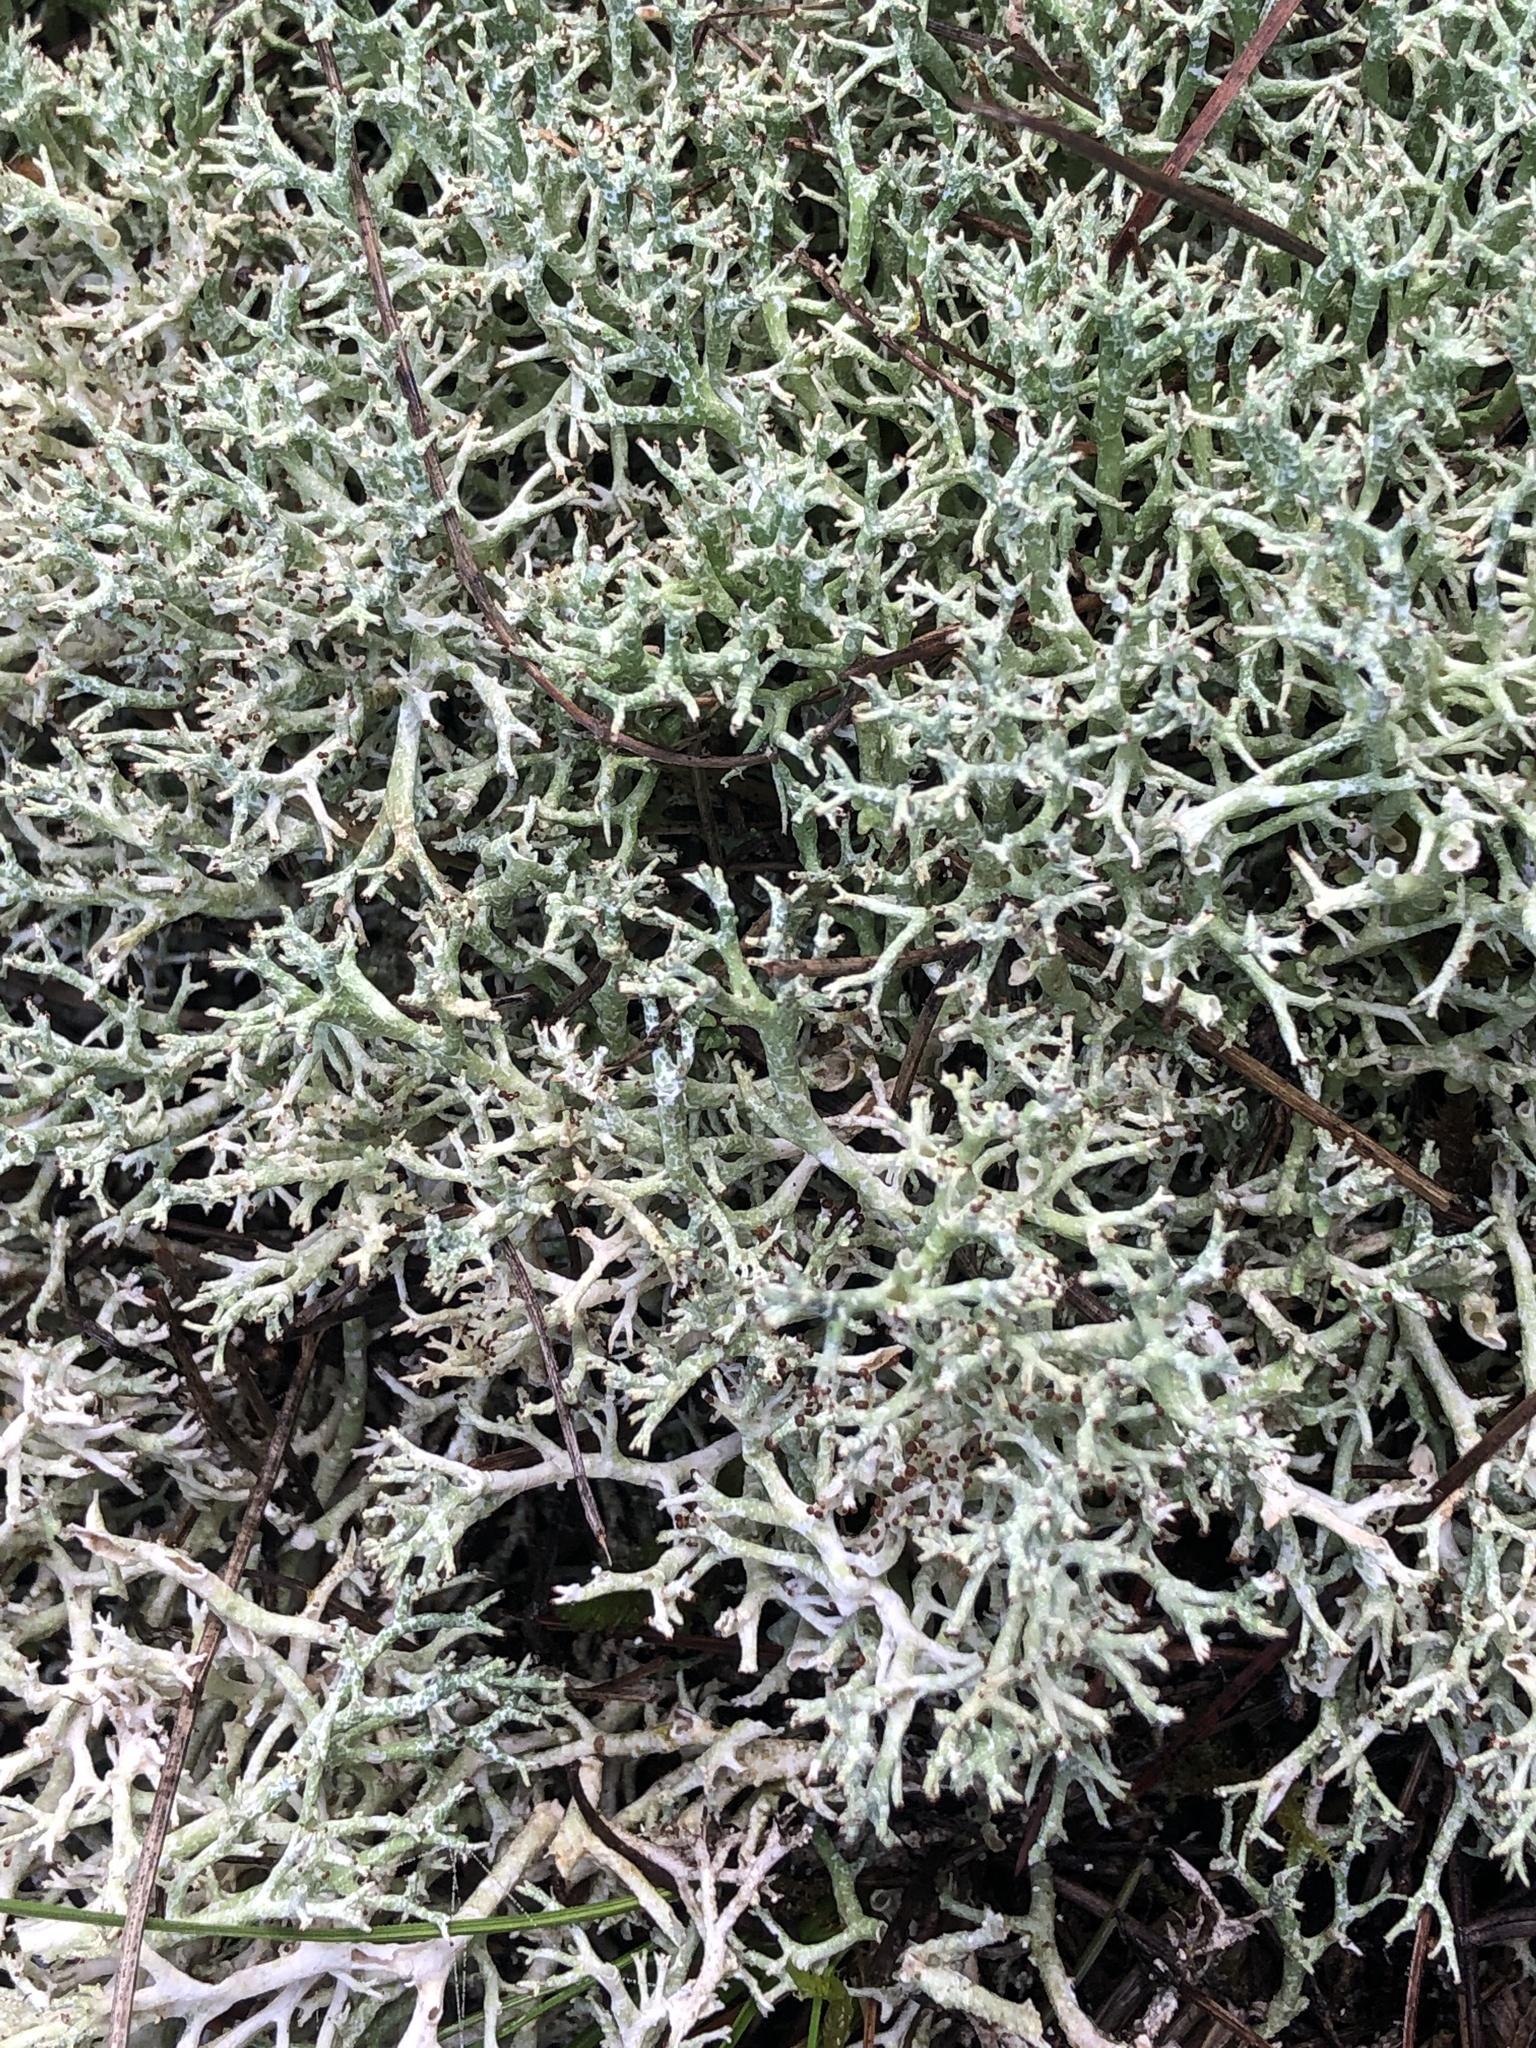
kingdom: Fungi
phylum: Ascomycota
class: Lecanoromycetes
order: Lecanorales
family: Cladoniaceae
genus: Cladonia
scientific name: Cladonia rangiformis
